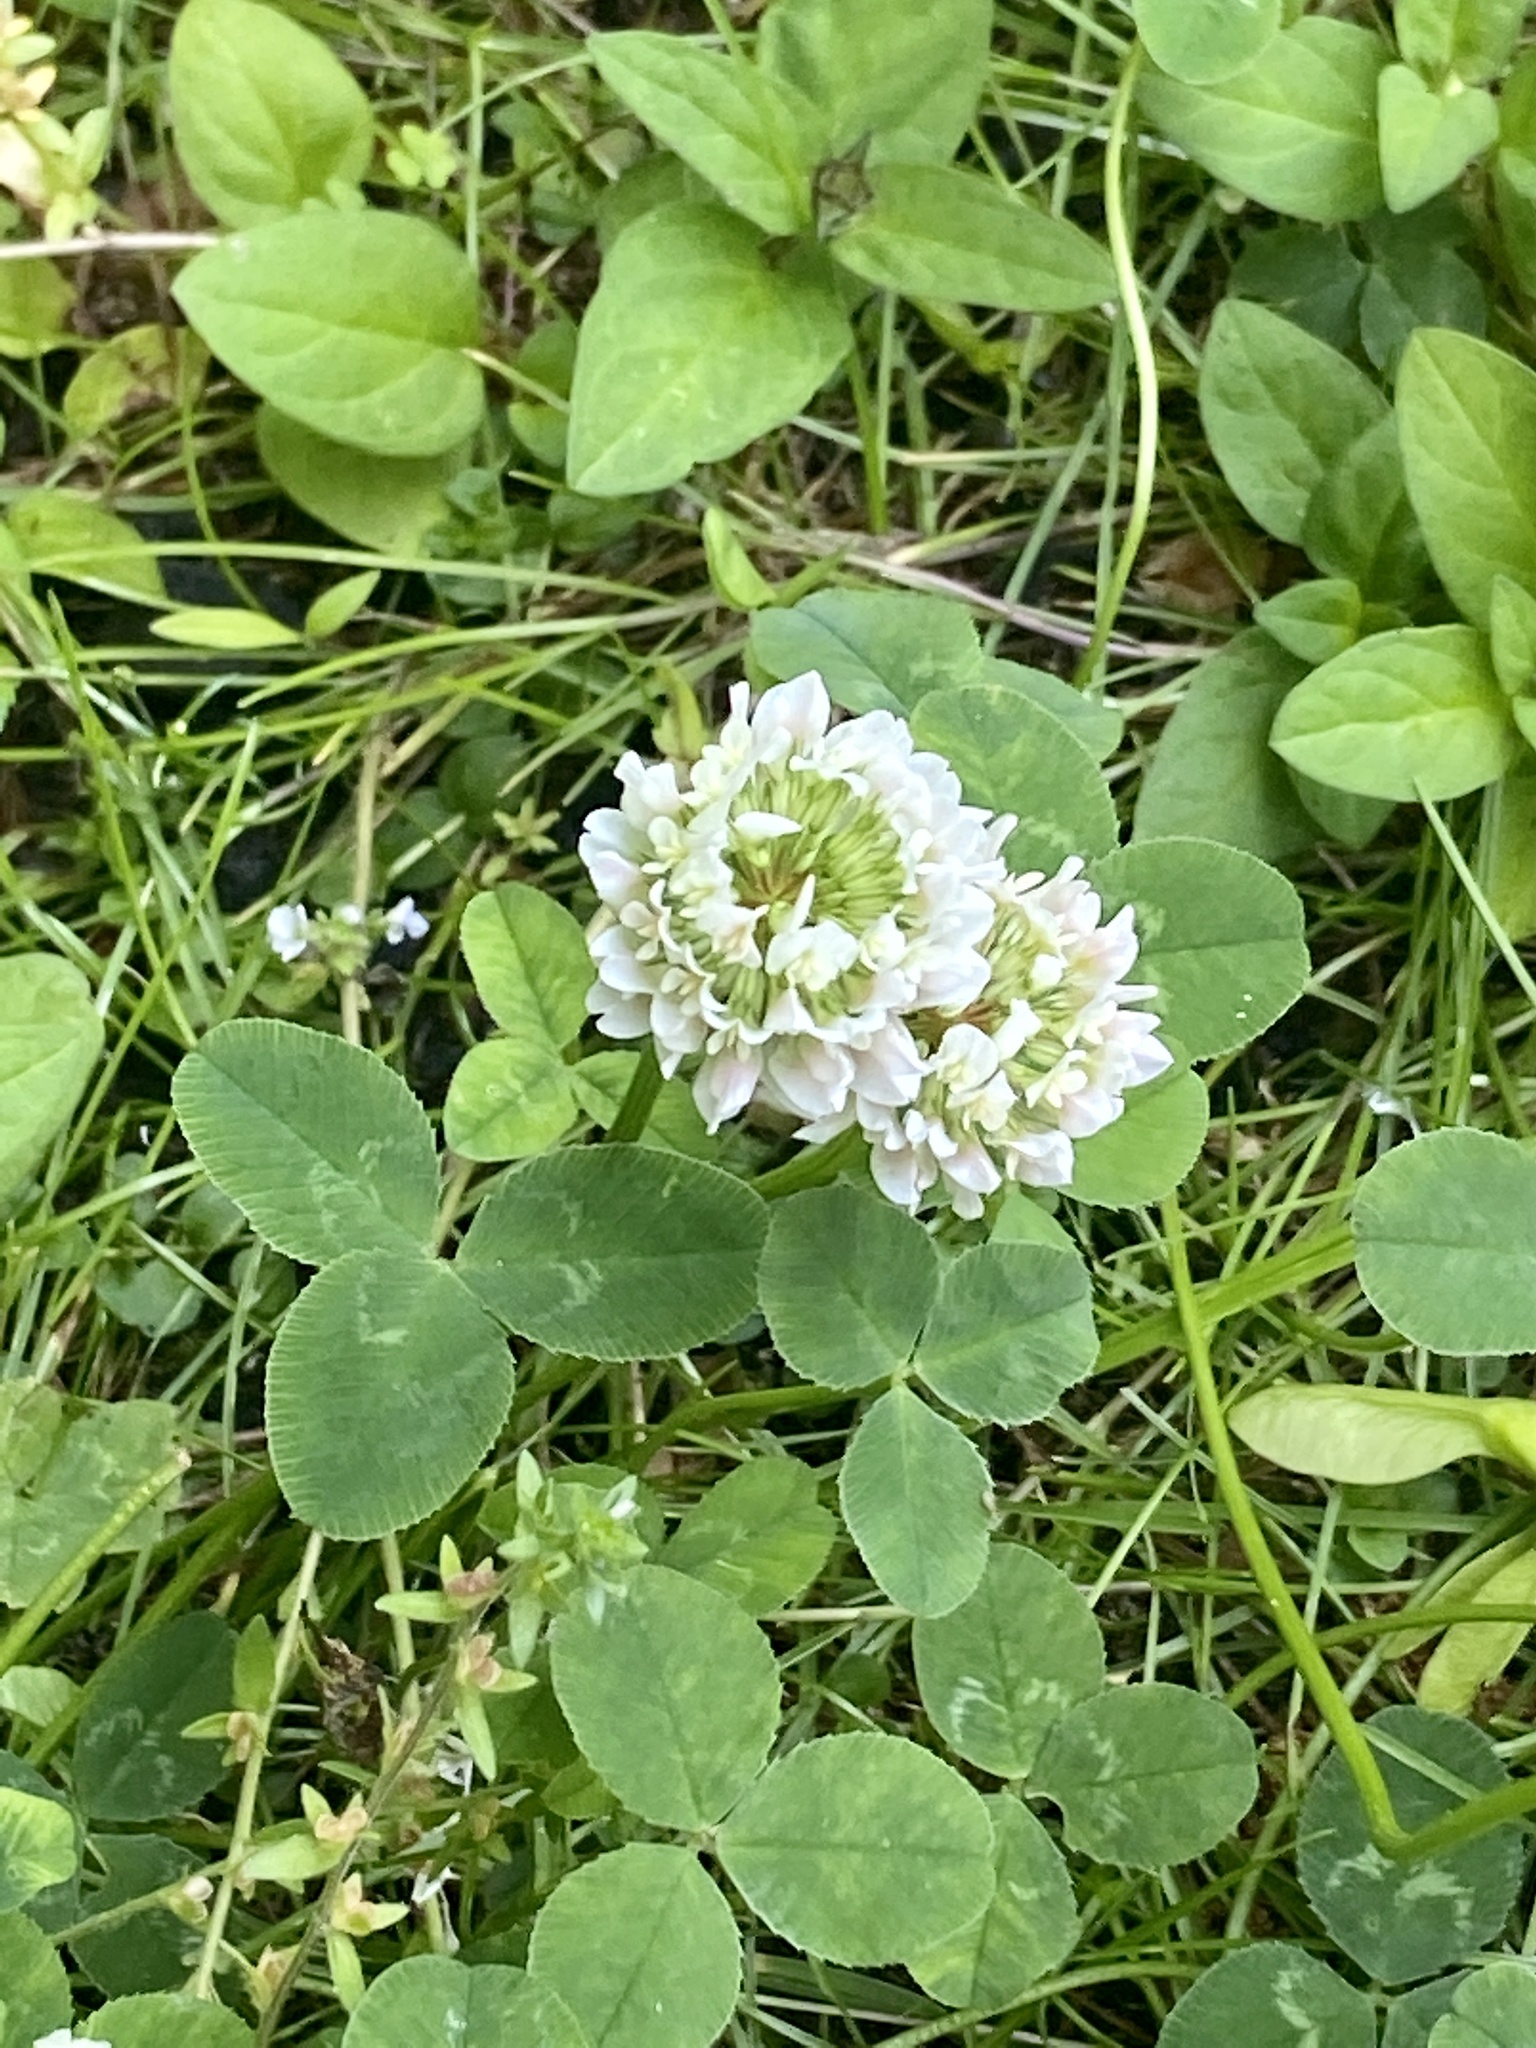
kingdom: Plantae
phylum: Tracheophyta
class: Magnoliopsida
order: Fabales
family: Fabaceae
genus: Trifolium
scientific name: Trifolium repens
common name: White clover
